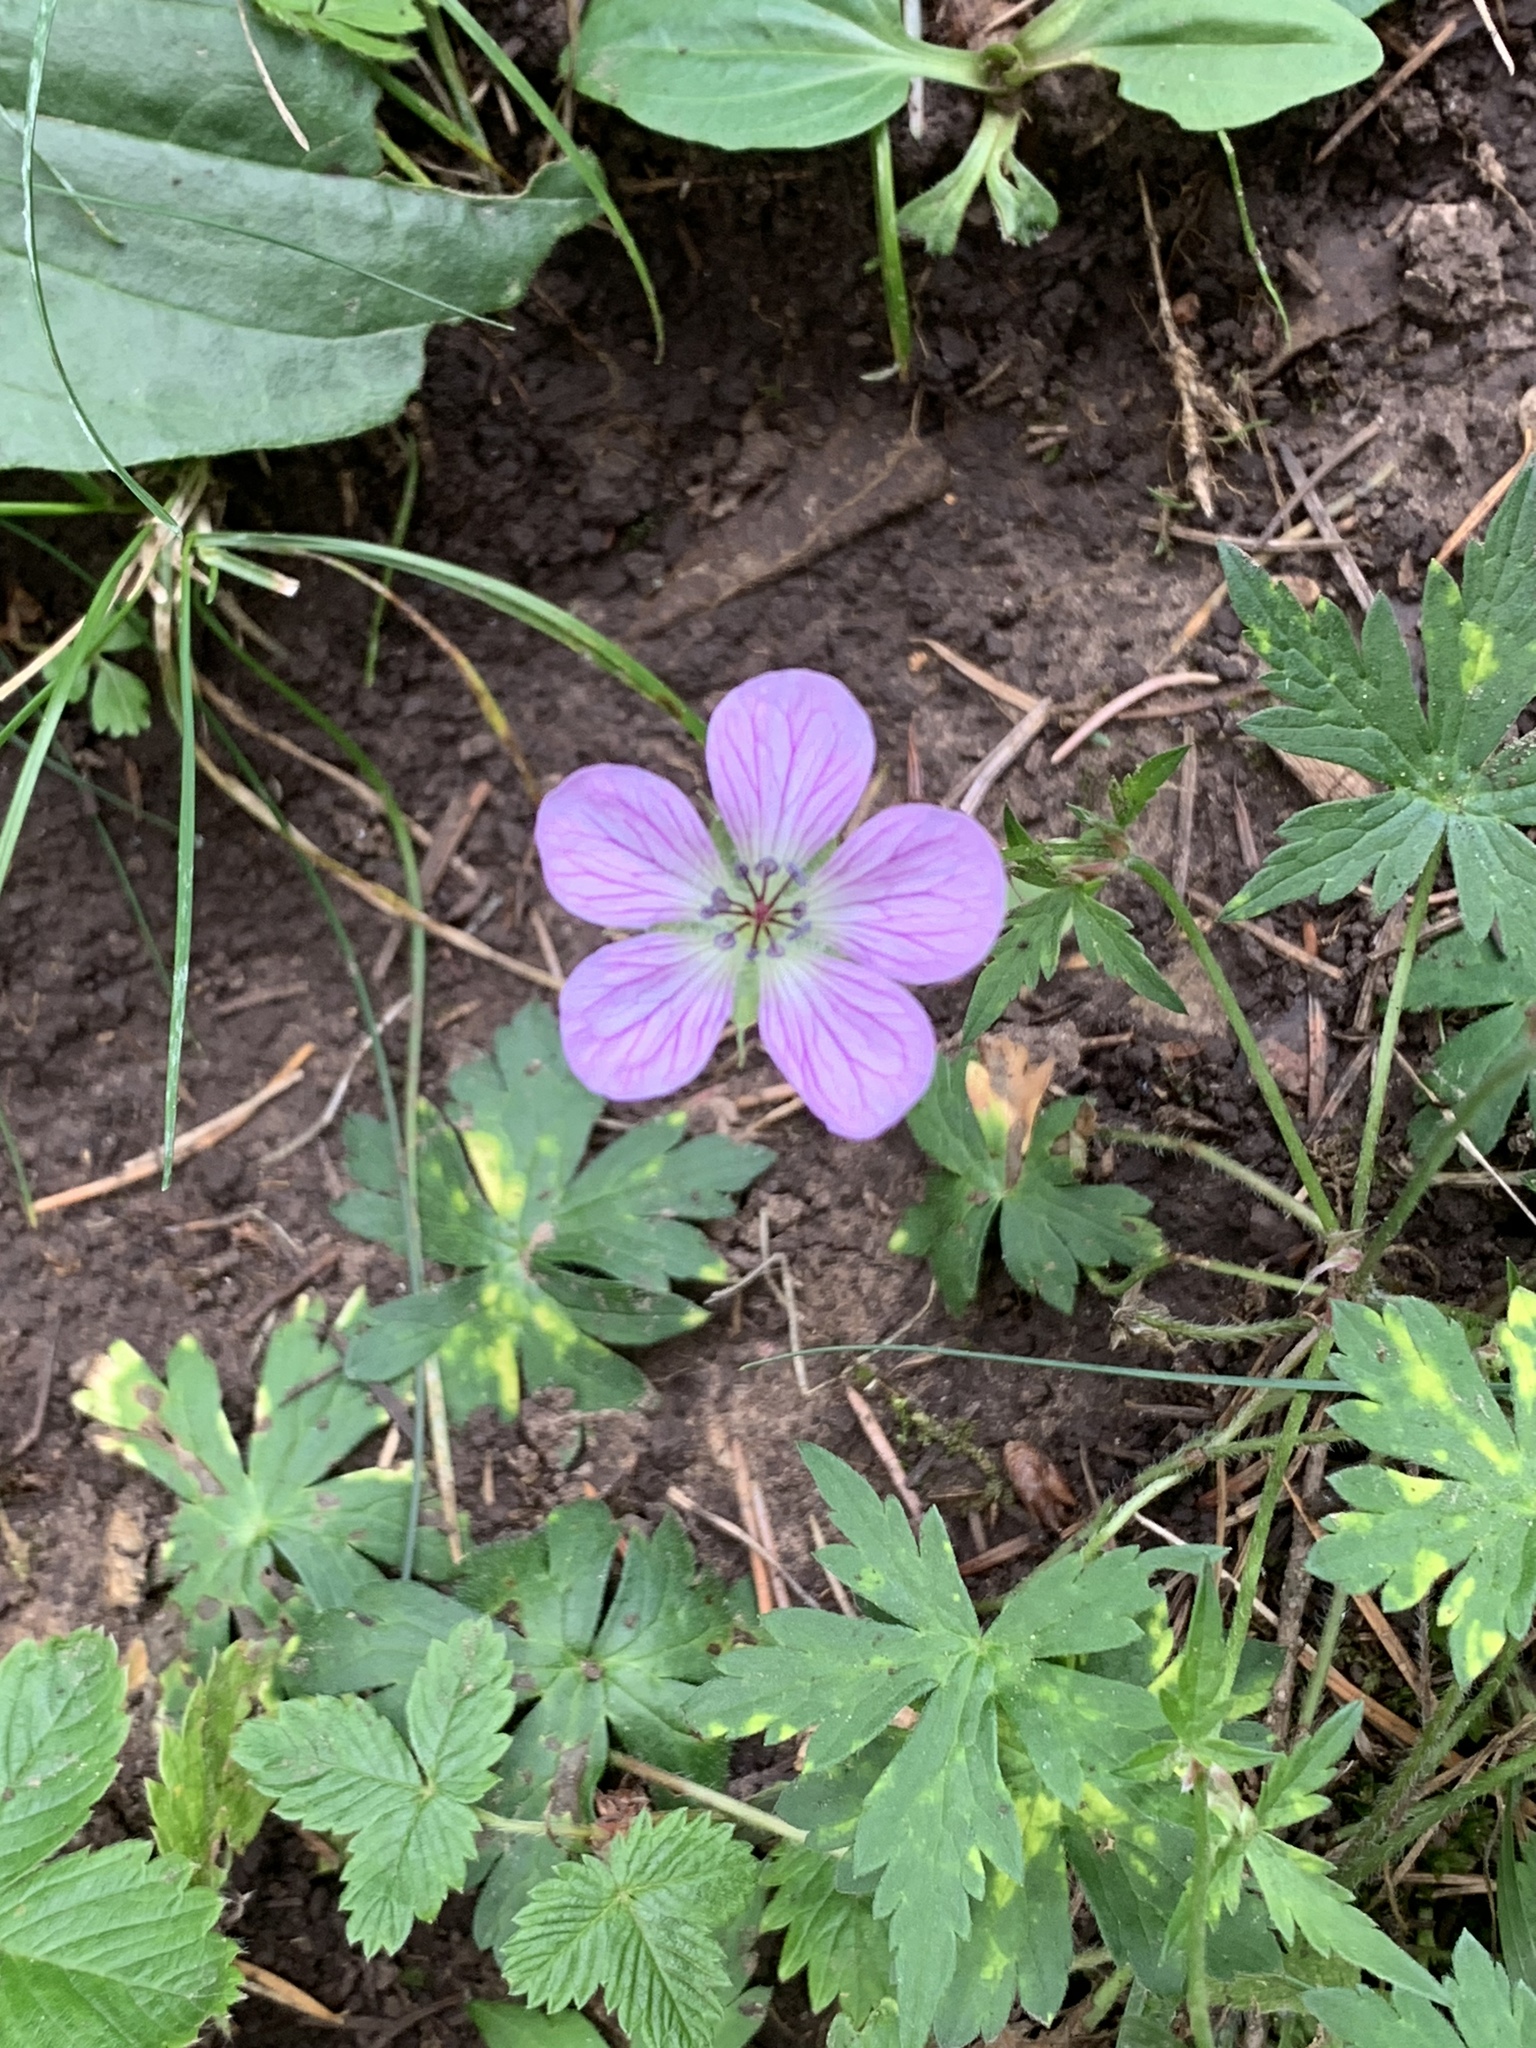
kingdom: Plantae
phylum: Tracheophyta
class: Magnoliopsida
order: Geraniales
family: Geraniaceae
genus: Geranium
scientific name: Geranium richardsonii
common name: Richardson's crane's-bill
